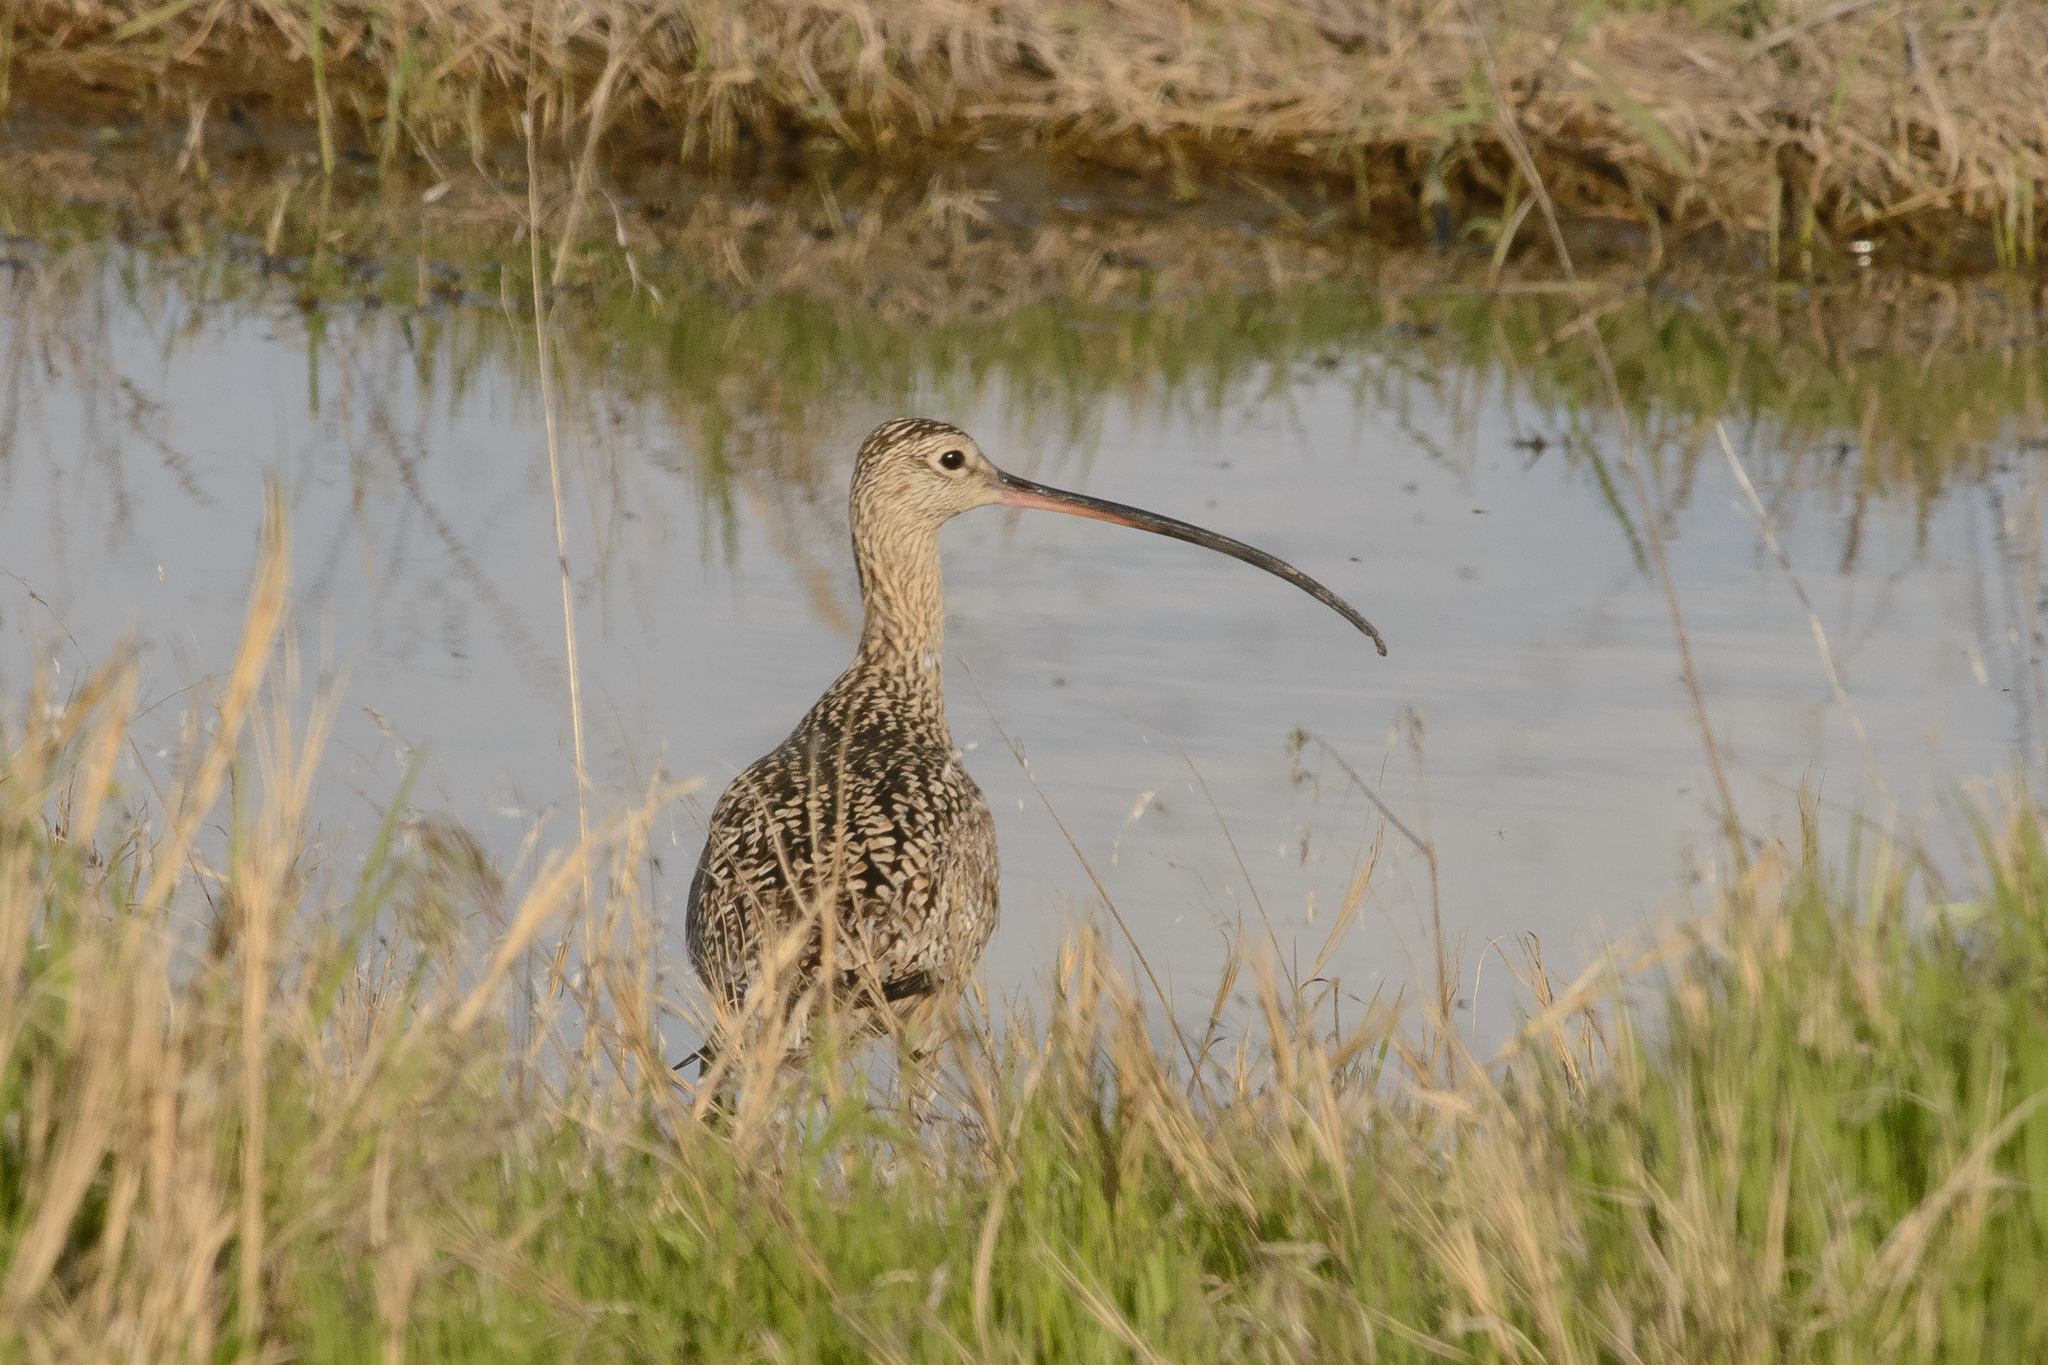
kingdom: Animalia
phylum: Chordata
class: Aves
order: Charadriiformes
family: Scolopacidae
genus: Numenius
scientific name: Numenius americanus
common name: Long-billed curlew
